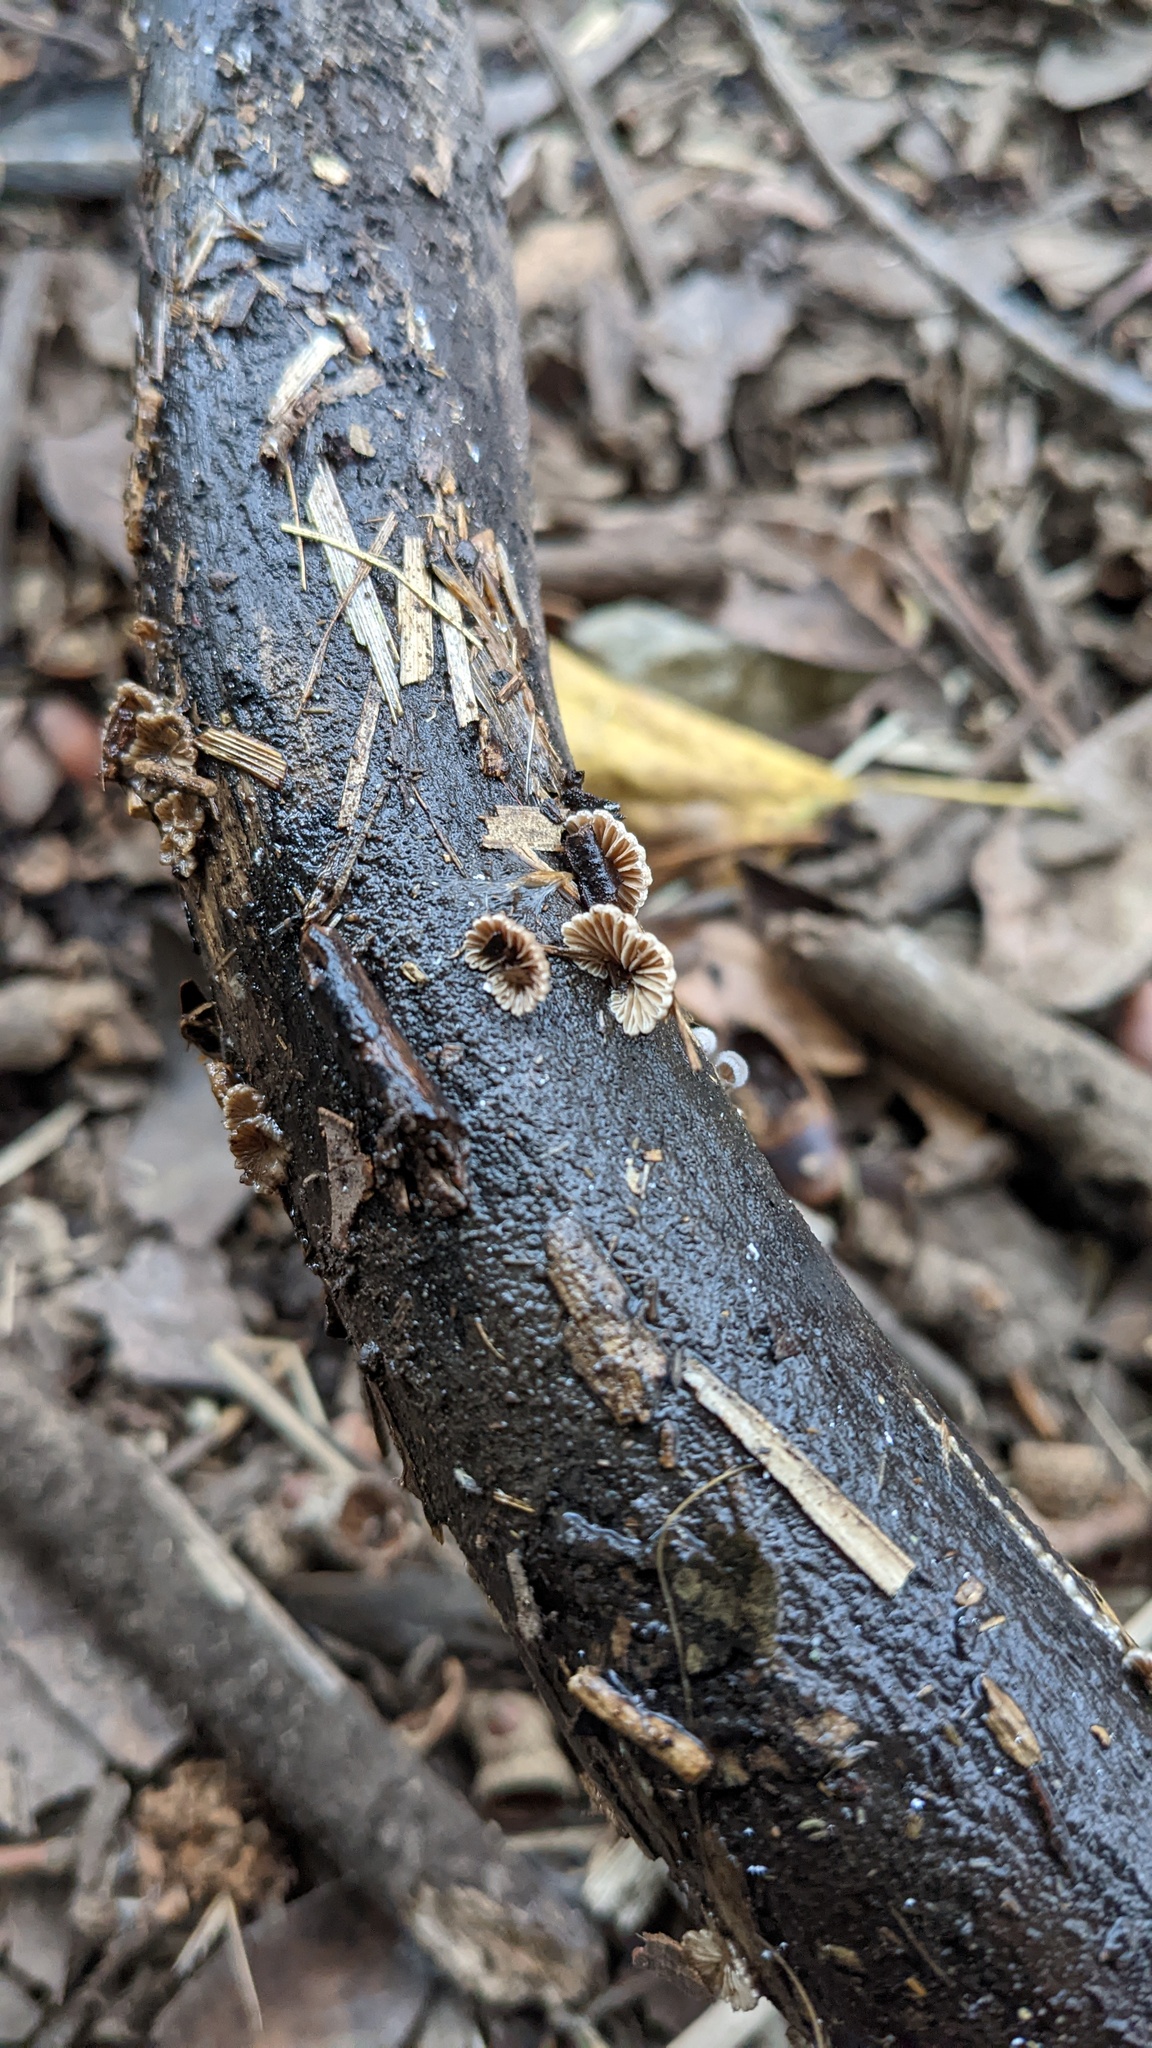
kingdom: Fungi
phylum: Basidiomycota
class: Agaricomycetes
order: Agaricales
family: Schizophyllaceae
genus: Schizophyllum
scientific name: Schizophyllum commune
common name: Common porecrust
